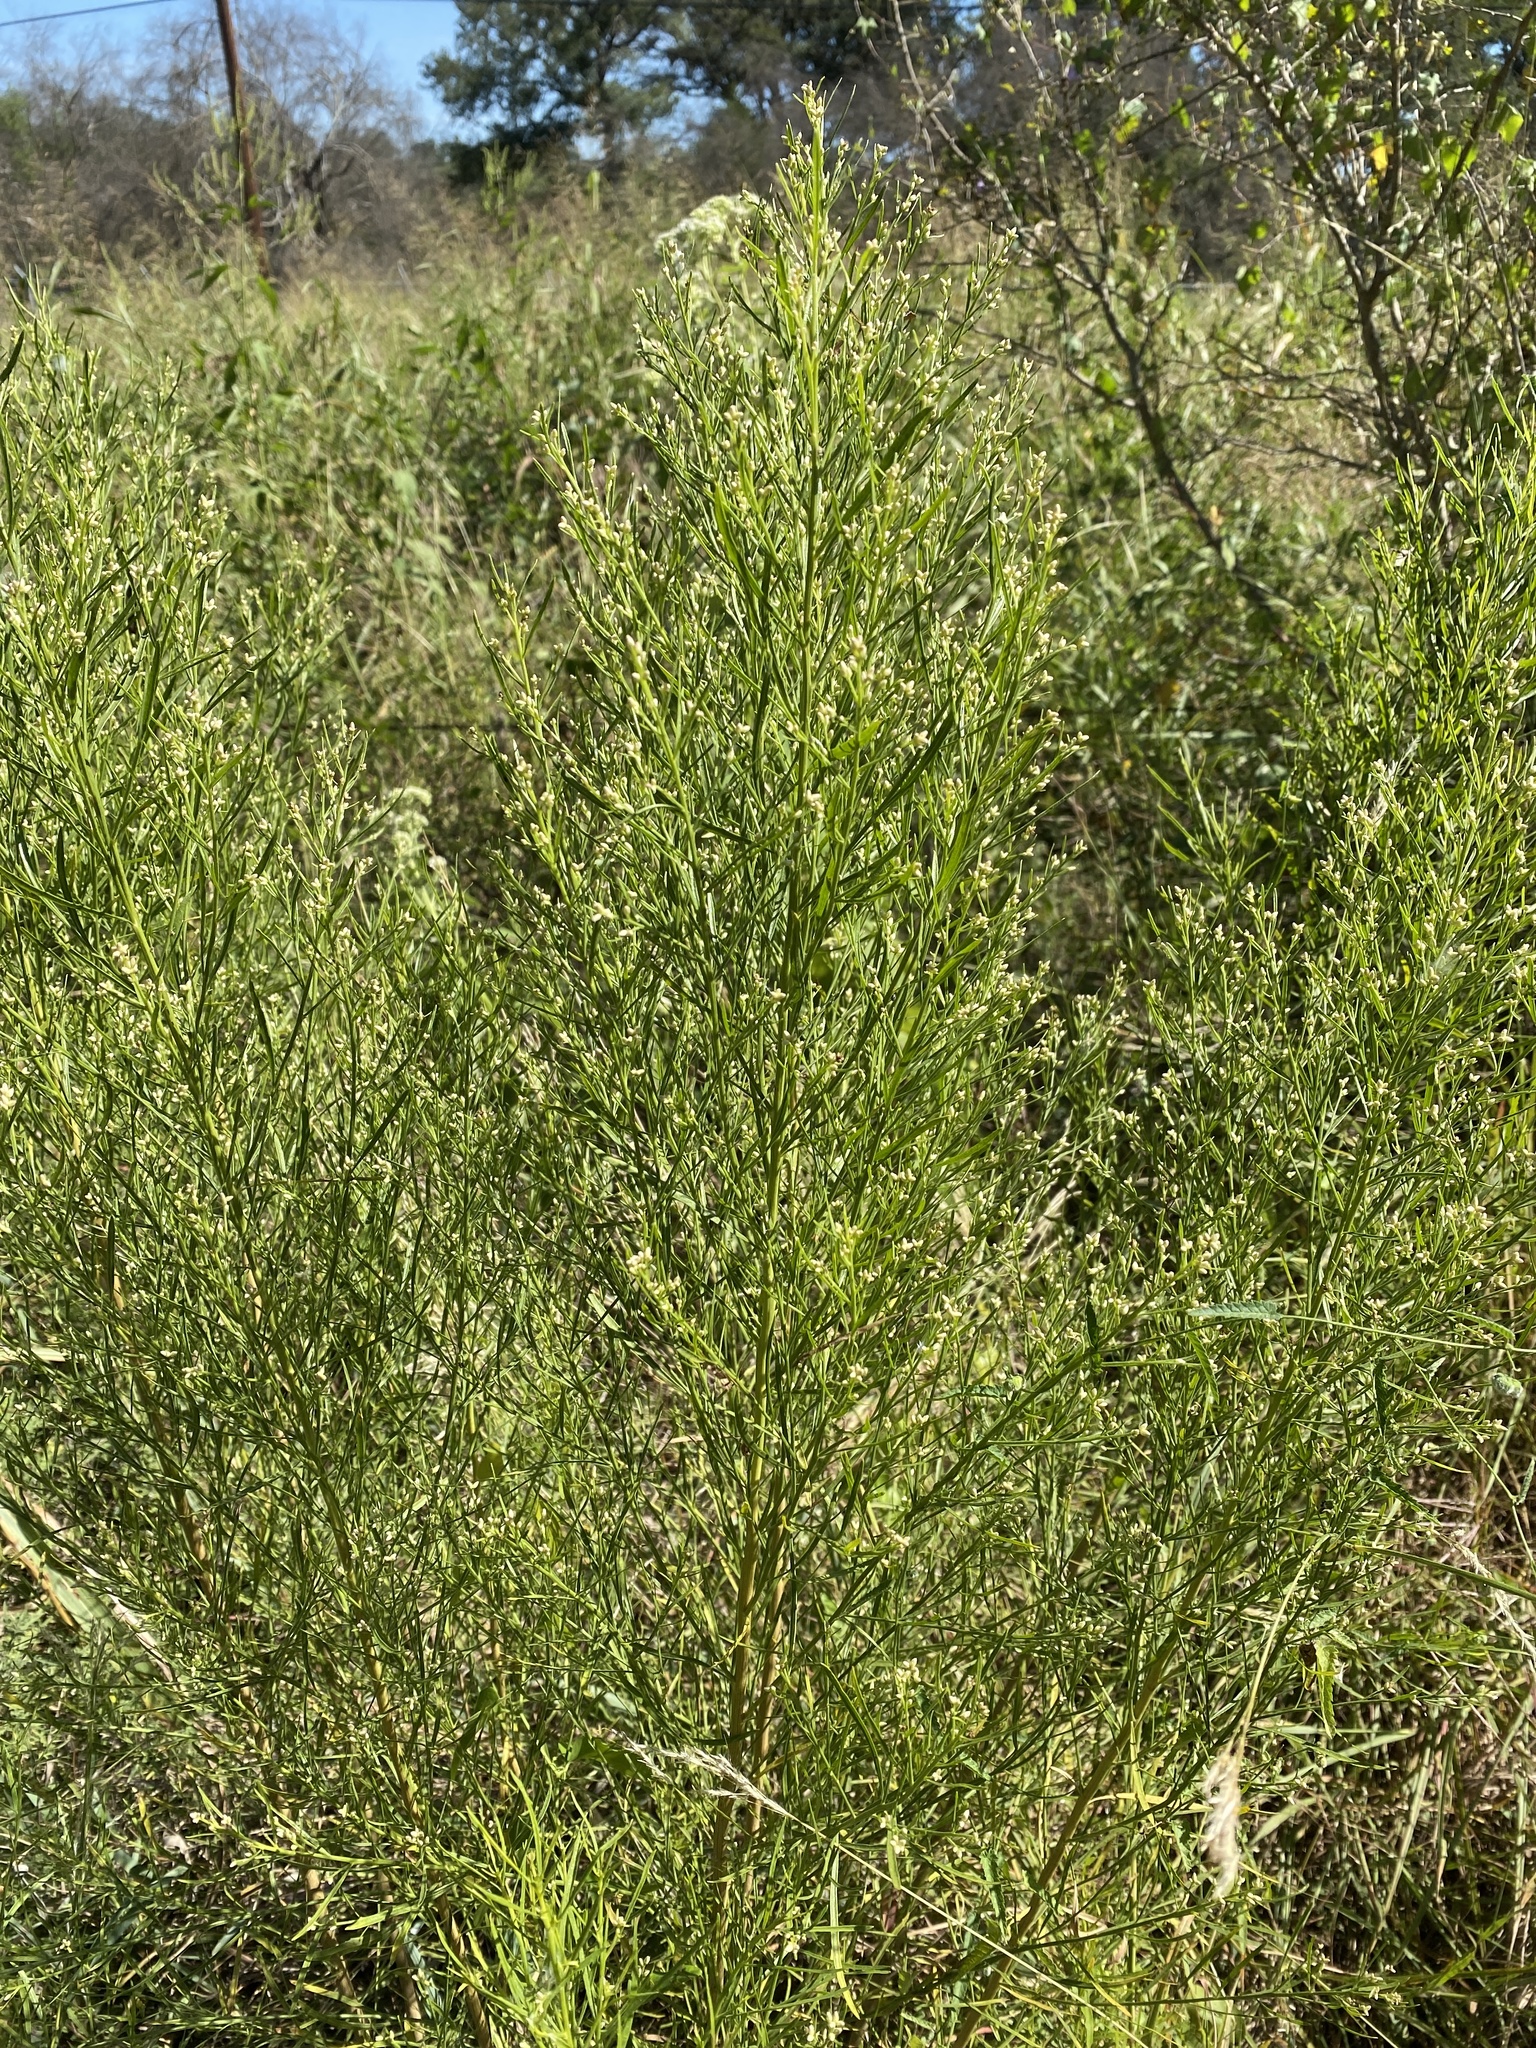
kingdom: Plantae
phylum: Tracheophyta
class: Magnoliopsida
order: Asterales
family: Asteraceae
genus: Baccharis
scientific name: Baccharis neglecta
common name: Roosevelt-weed
